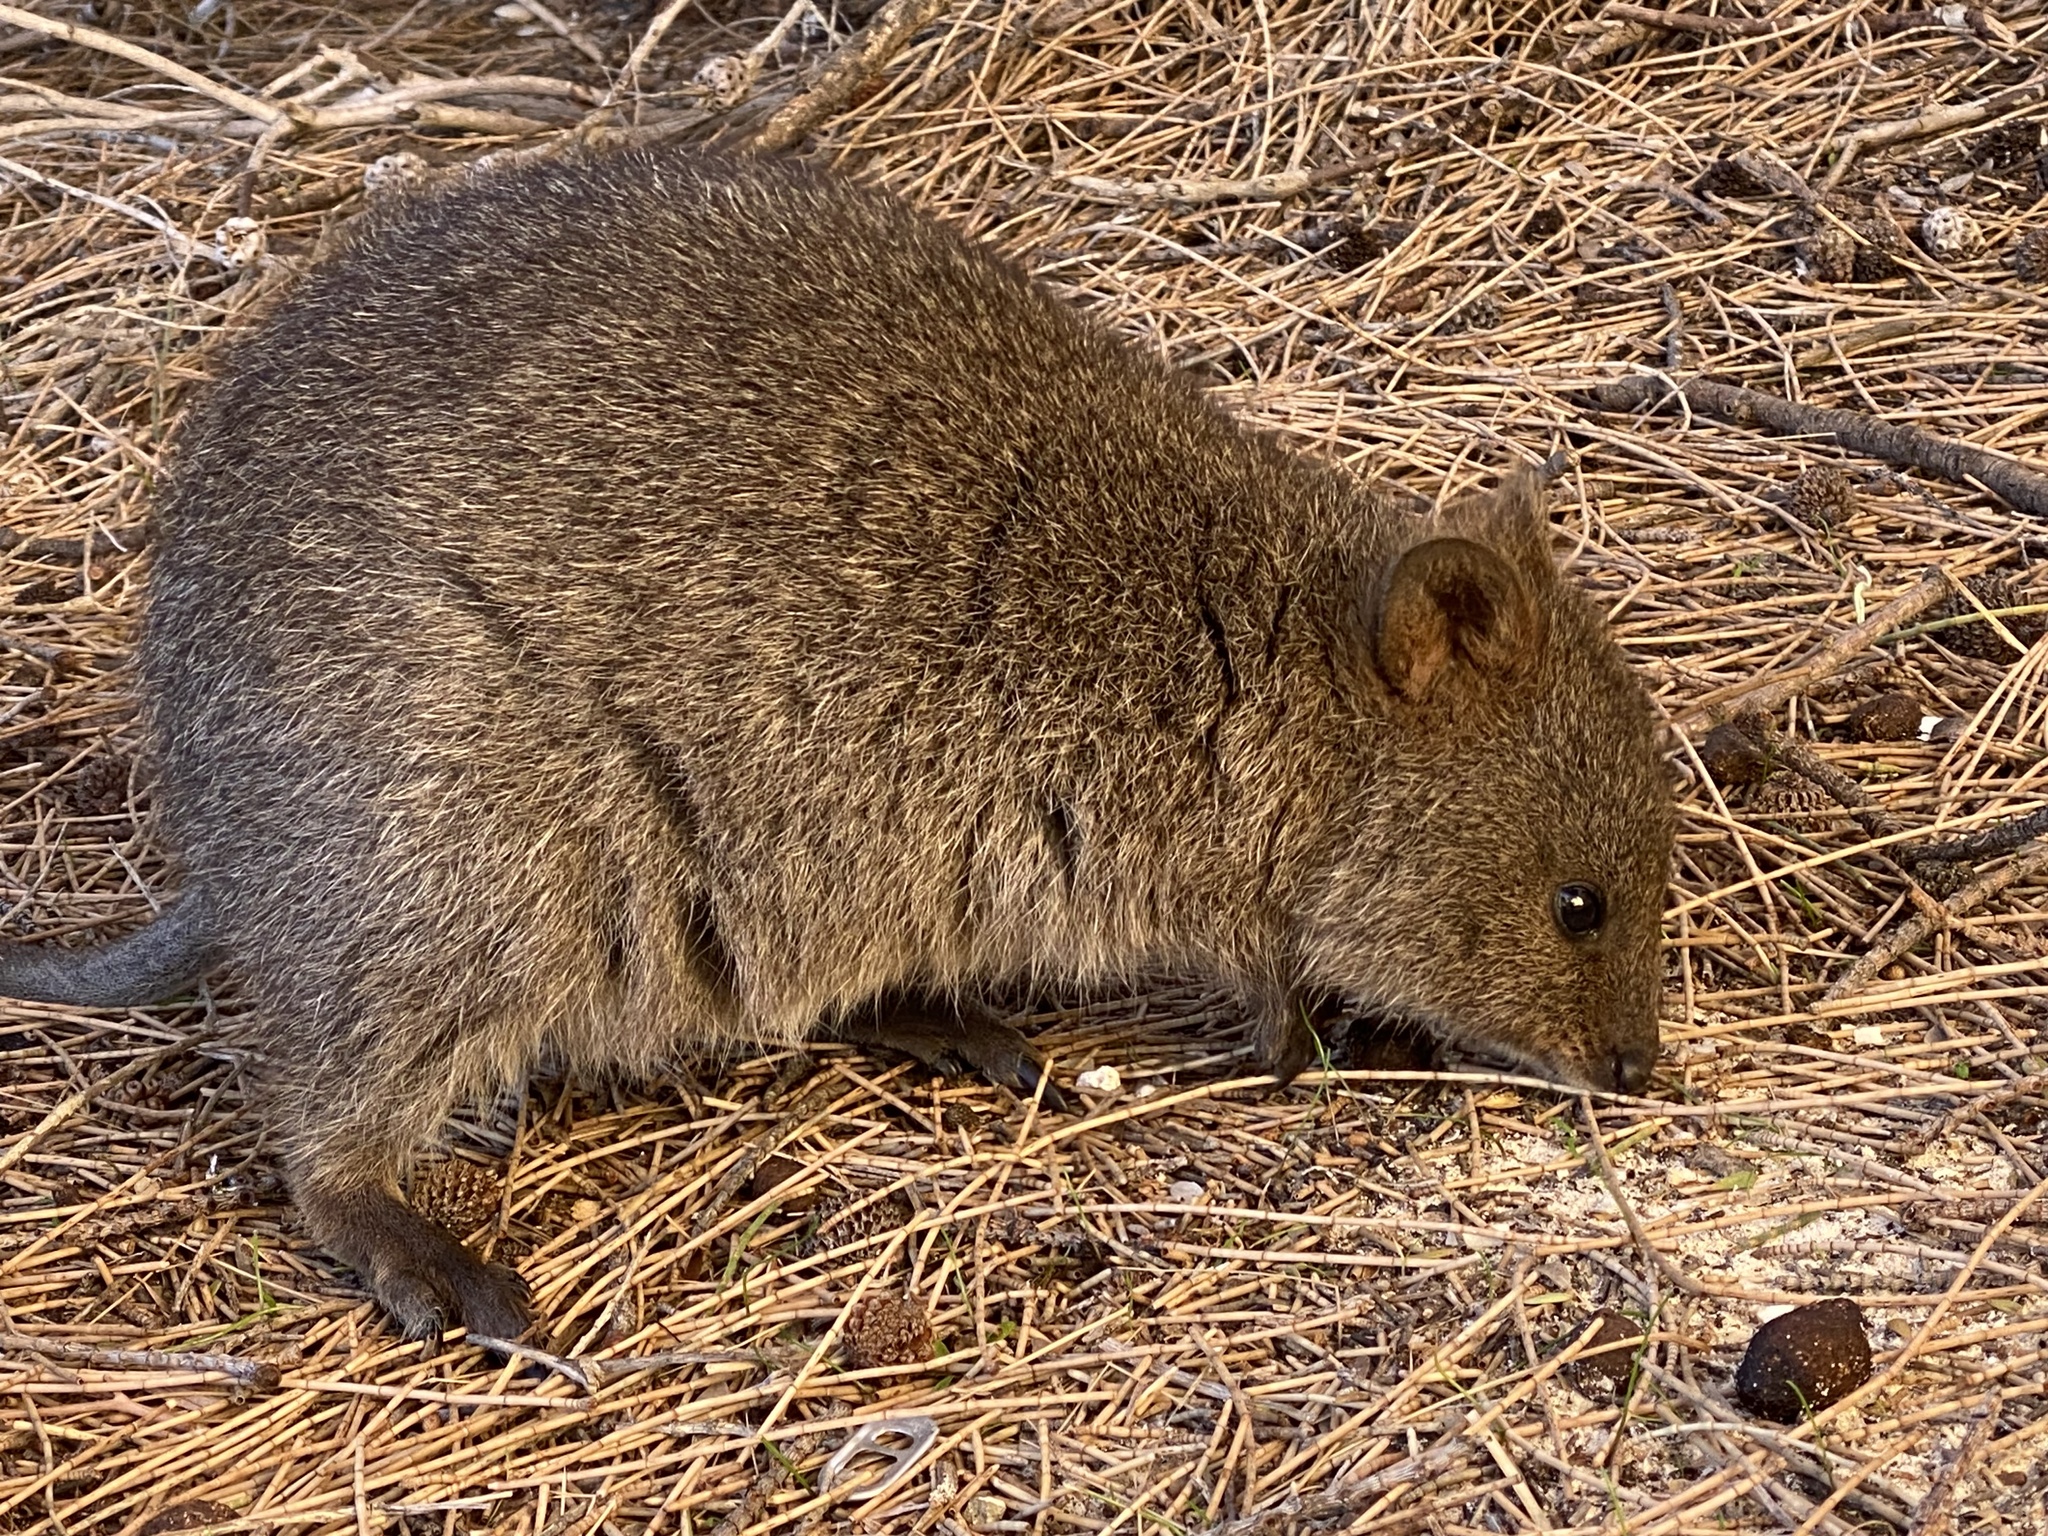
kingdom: Animalia
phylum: Chordata
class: Mammalia
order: Diprotodontia
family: Macropodidae
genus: Setonix
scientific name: Setonix brachyurus
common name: Quokka
